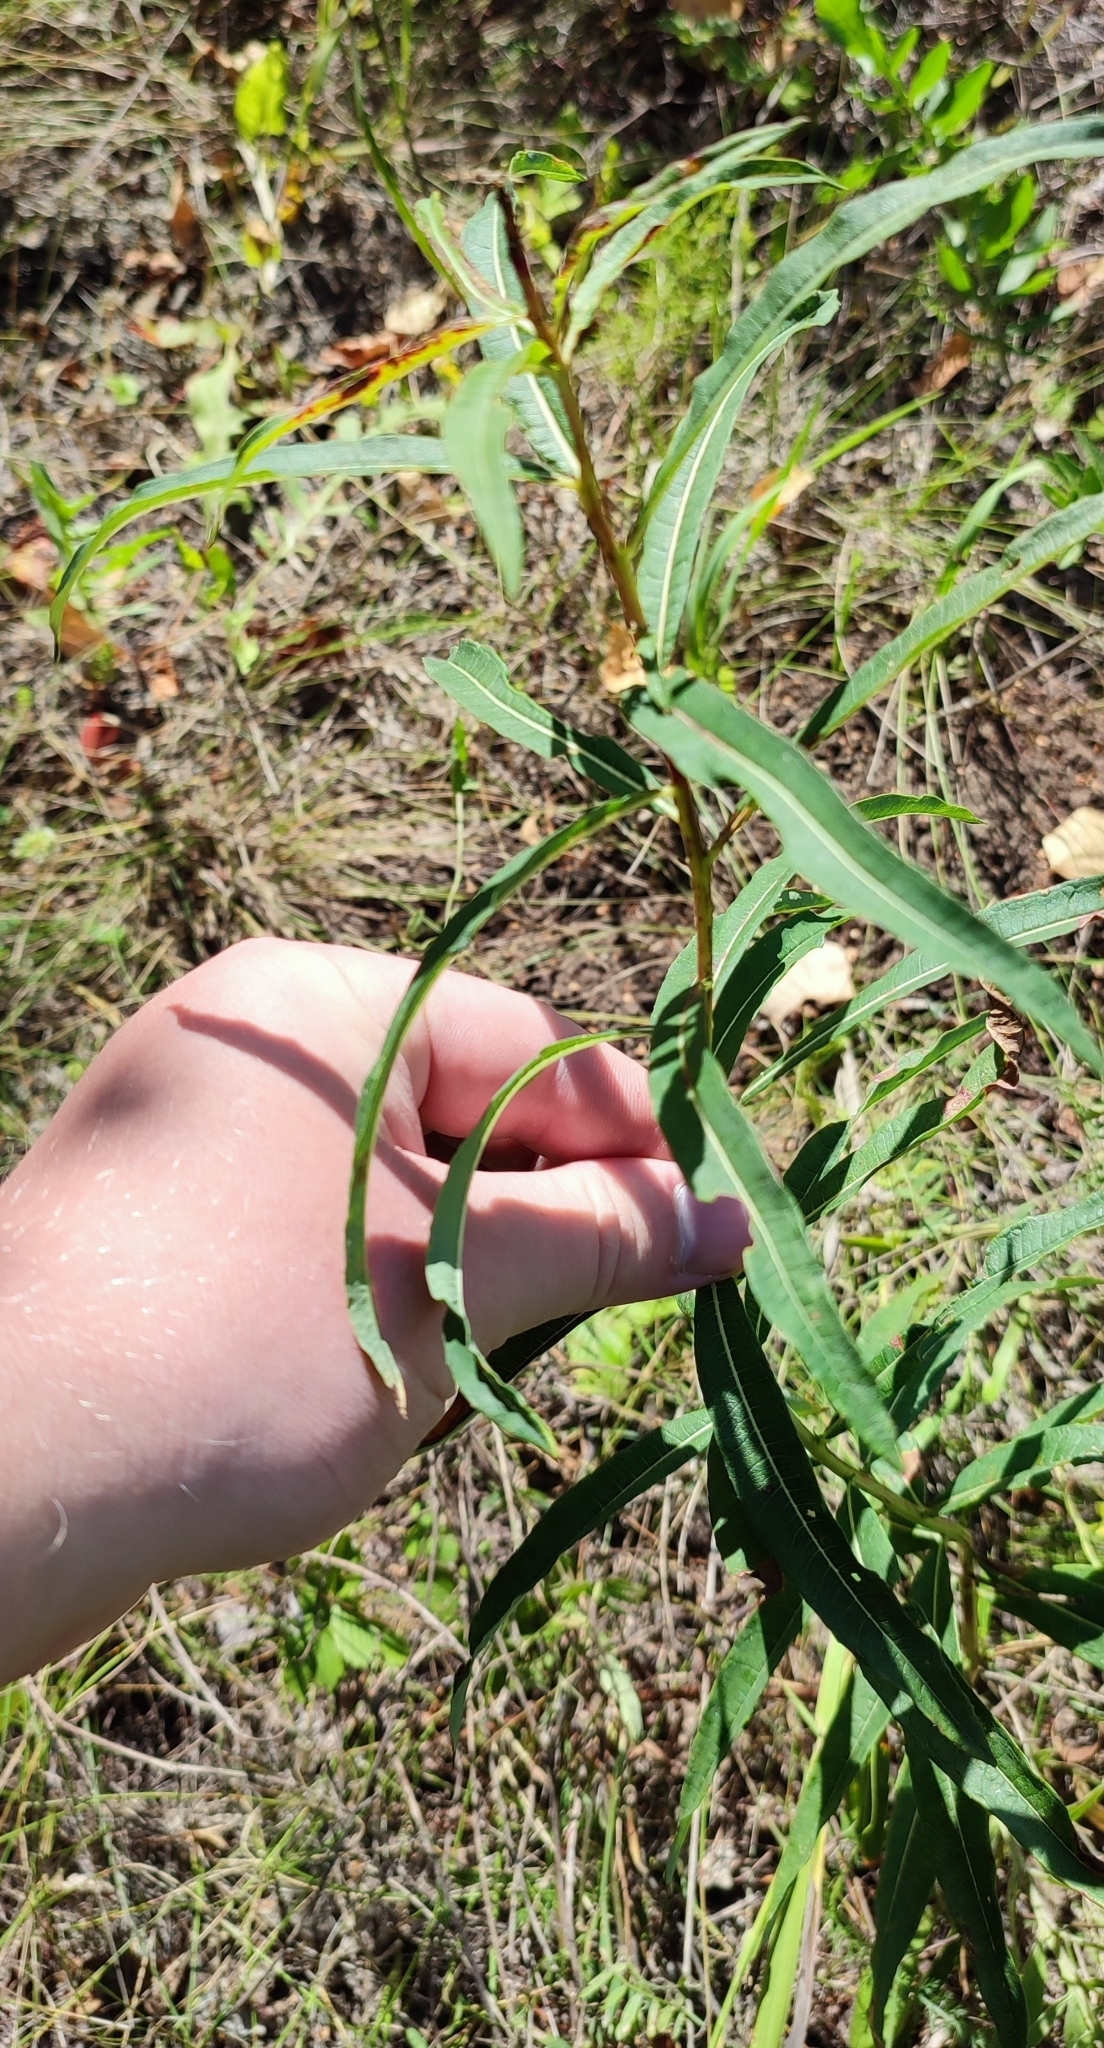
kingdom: Plantae
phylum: Tracheophyta
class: Magnoliopsida
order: Myrtales
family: Onagraceae
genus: Chamaenerion
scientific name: Chamaenerion angustifolium
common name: Fireweed
